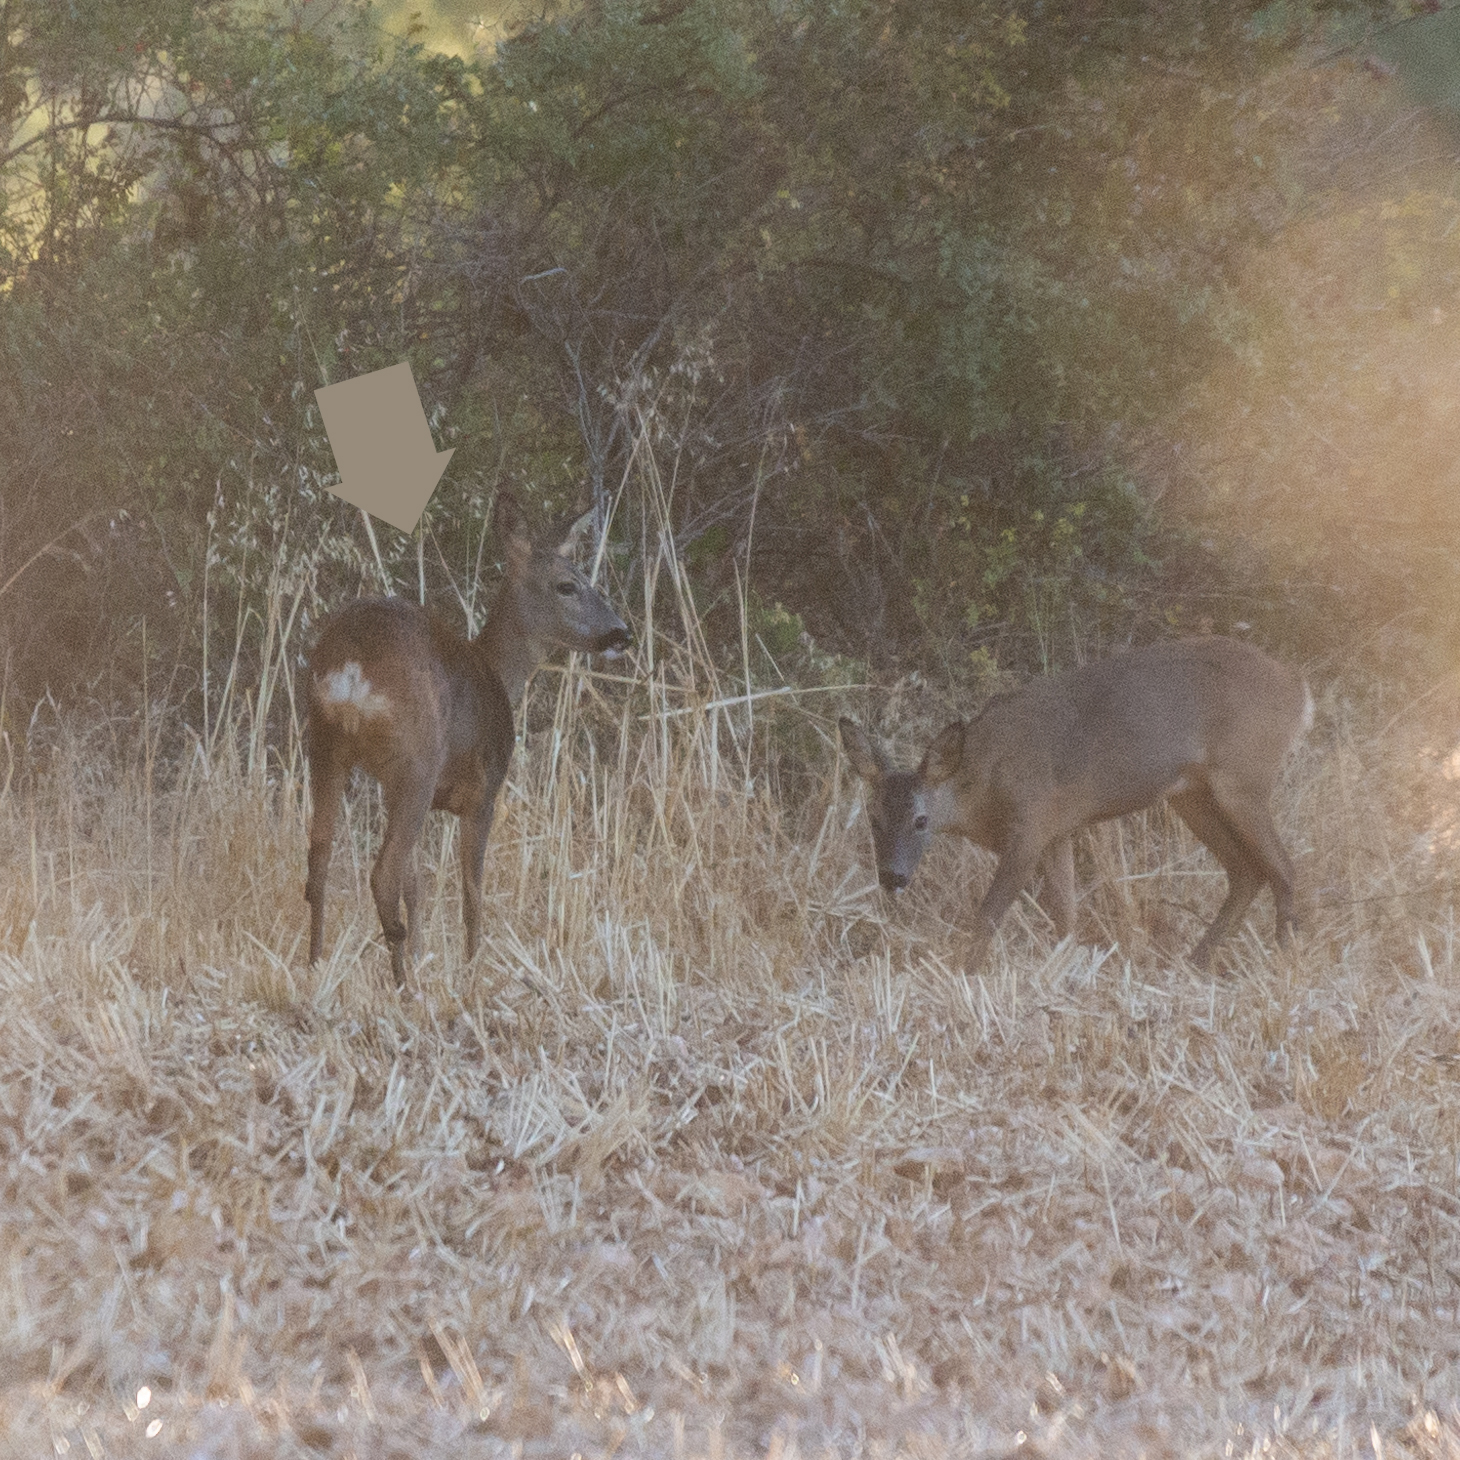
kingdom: Animalia
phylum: Chordata
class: Mammalia
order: Artiodactyla
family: Cervidae
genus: Capreolus
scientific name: Capreolus capreolus
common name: Western roe deer
